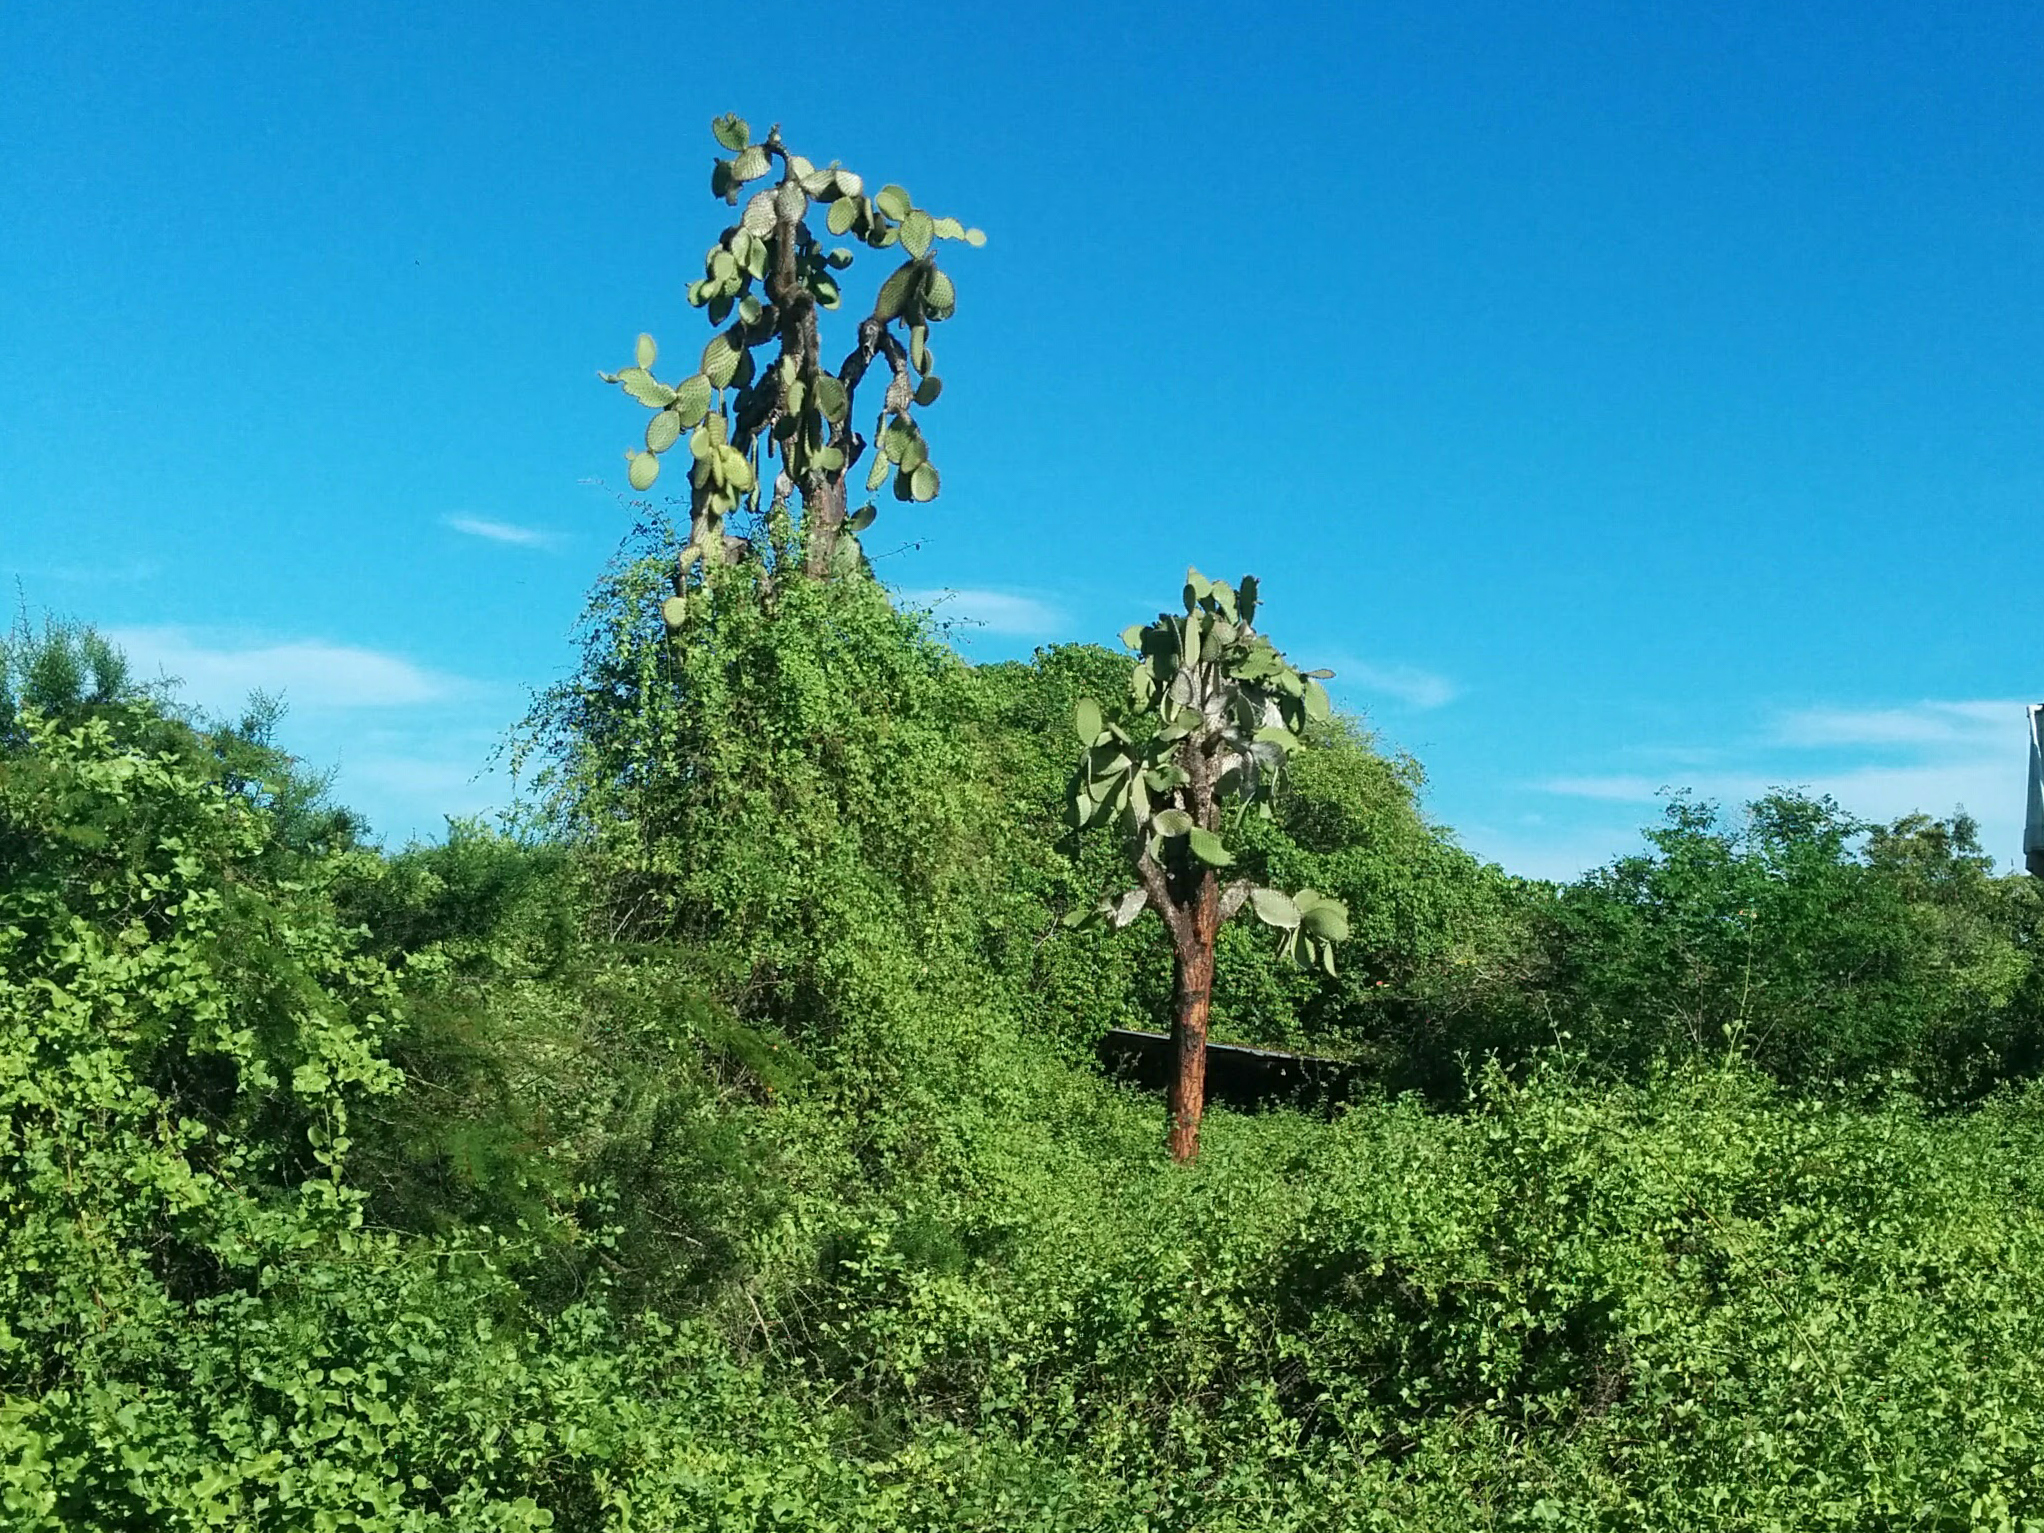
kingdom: Plantae
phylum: Tracheophyta
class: Magnoliopsida
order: Caryophyllales
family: Cactaceae
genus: Opuntia
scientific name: Opuntia galapageia
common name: Galápagos prickly pear
